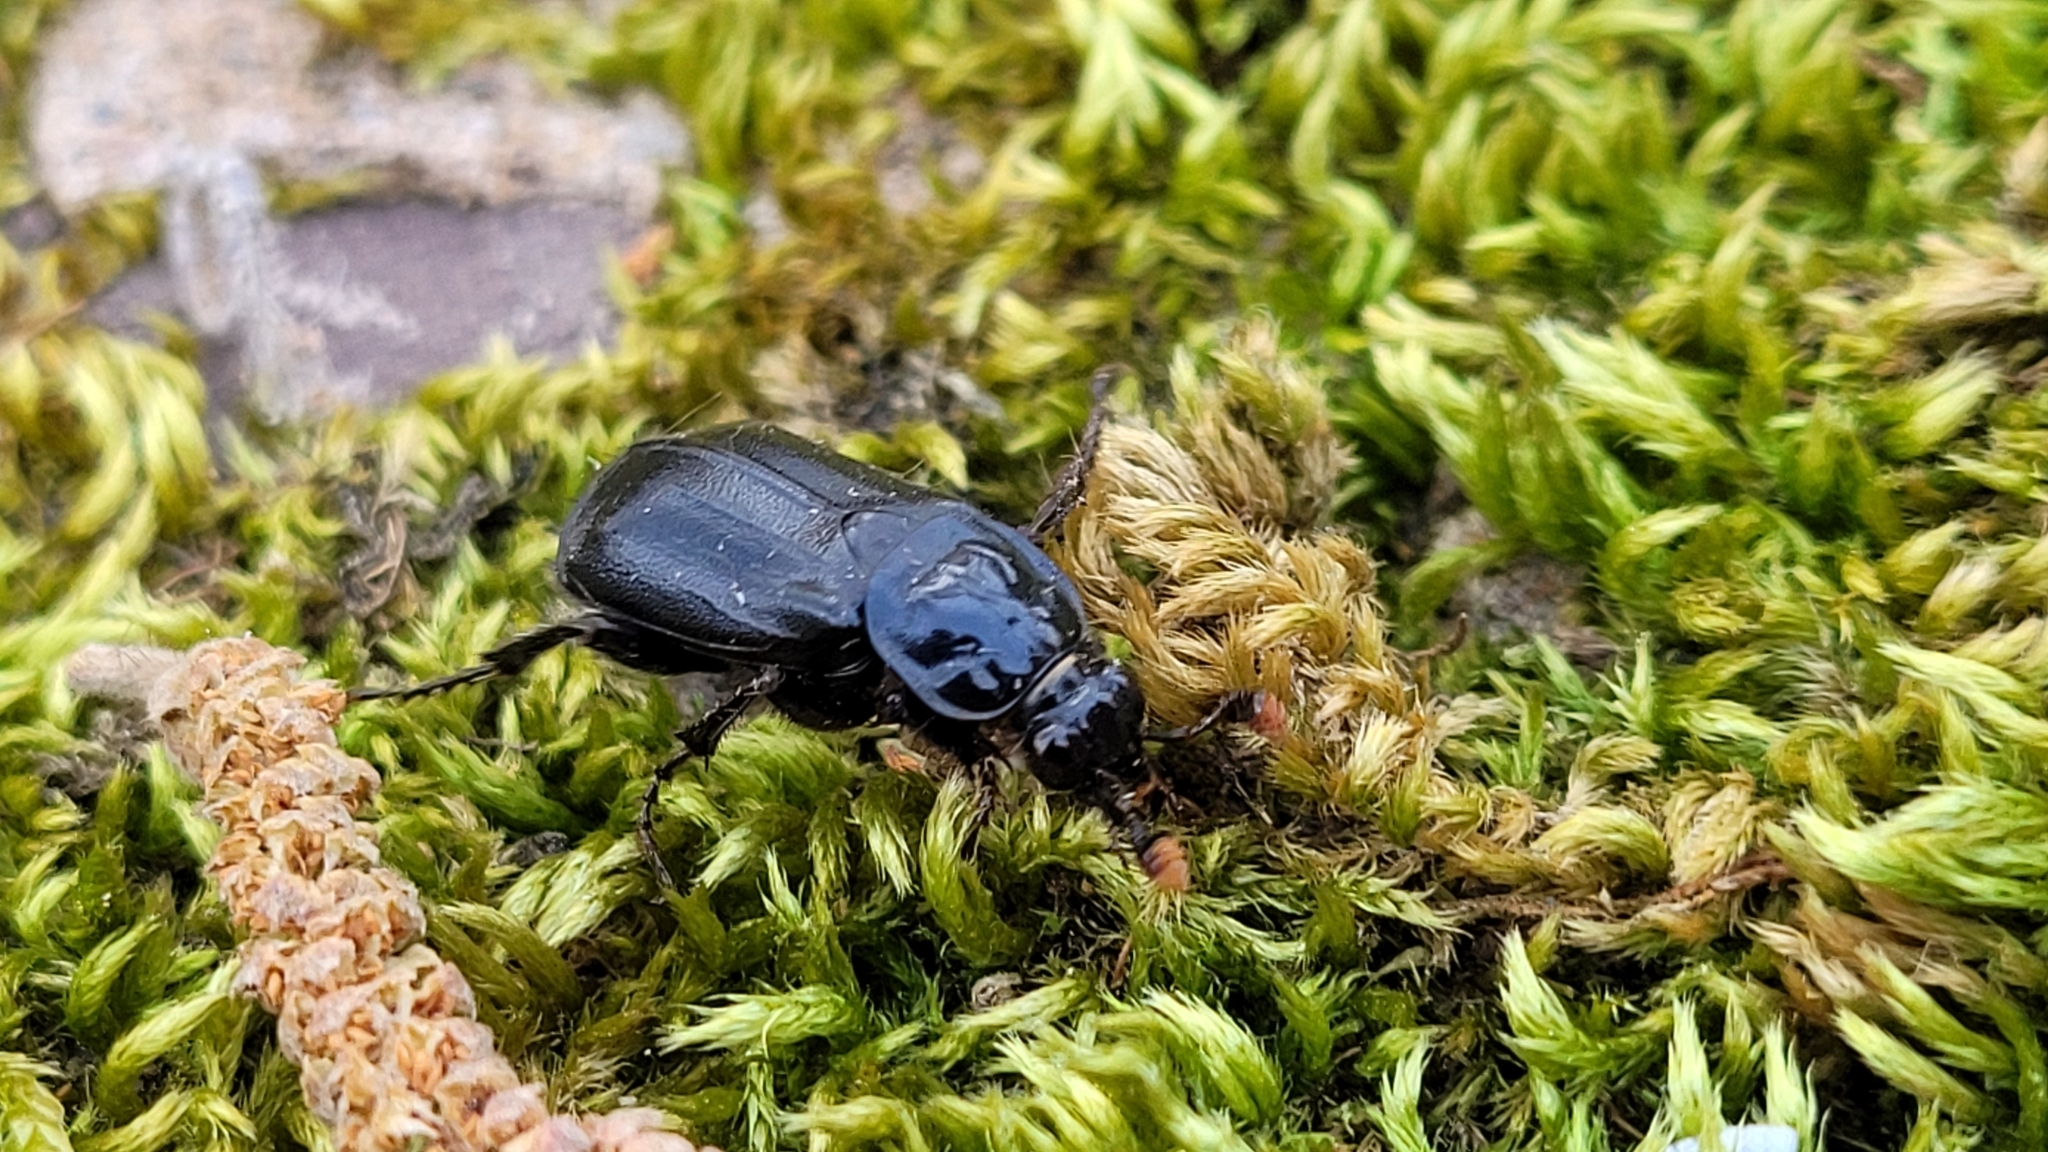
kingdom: Animalia
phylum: Arthropoda
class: Insecta
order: Coleoptera
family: Staphylinidae
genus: Nicrophorus
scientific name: Nicrophorus humator
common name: Black sexton beetle
